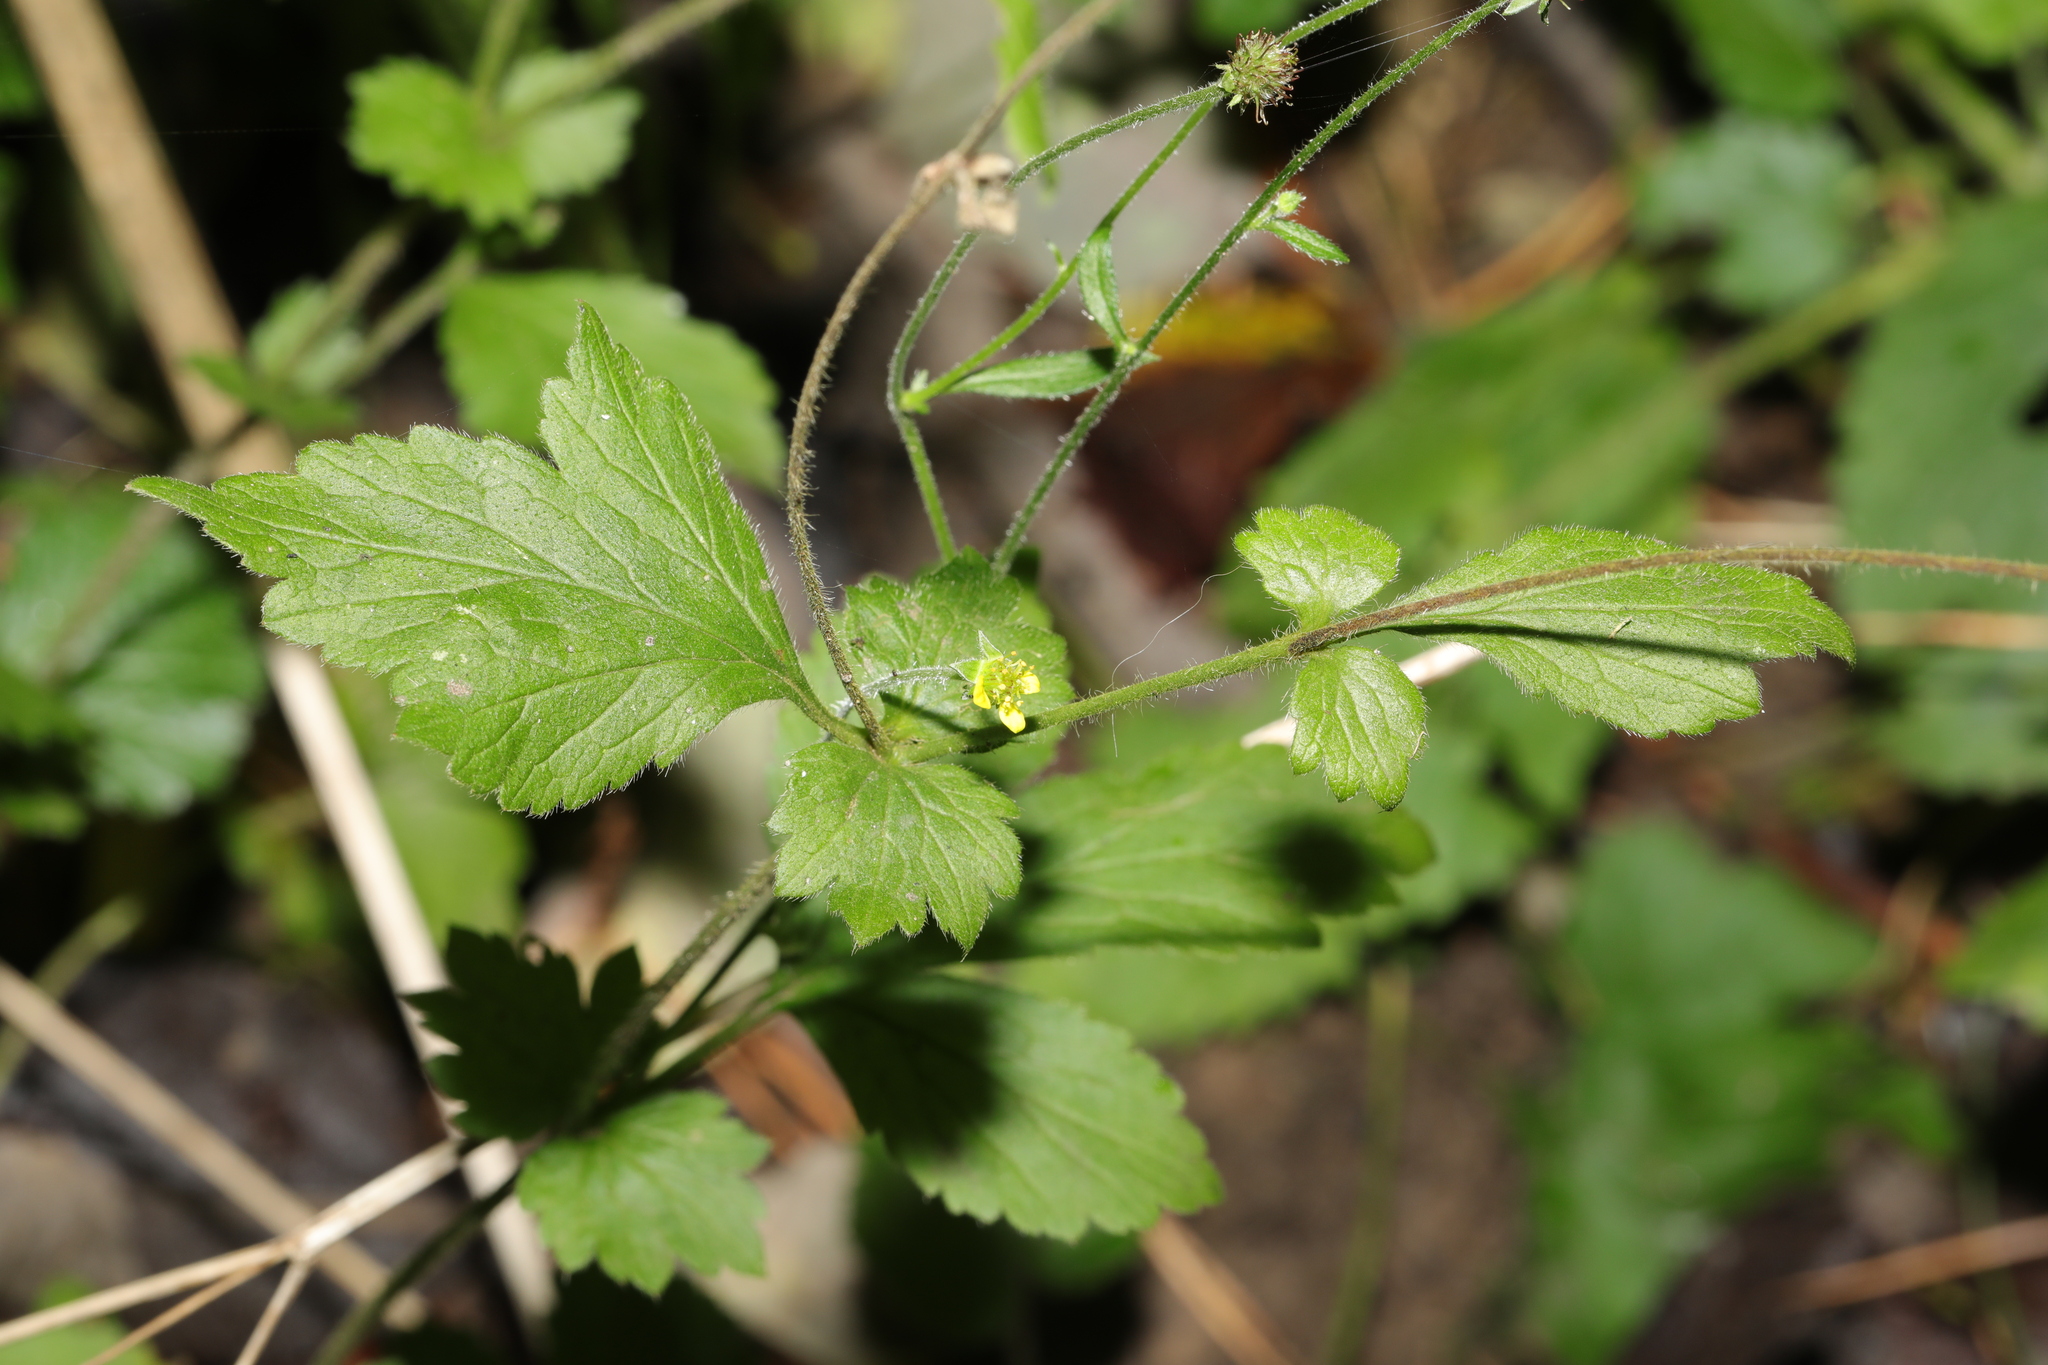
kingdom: Plantae
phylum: Tracheophyta
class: Magnoliopsida
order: Rosales
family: Rosaceae
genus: Geum
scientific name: Geum urbanum
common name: Wood avens
